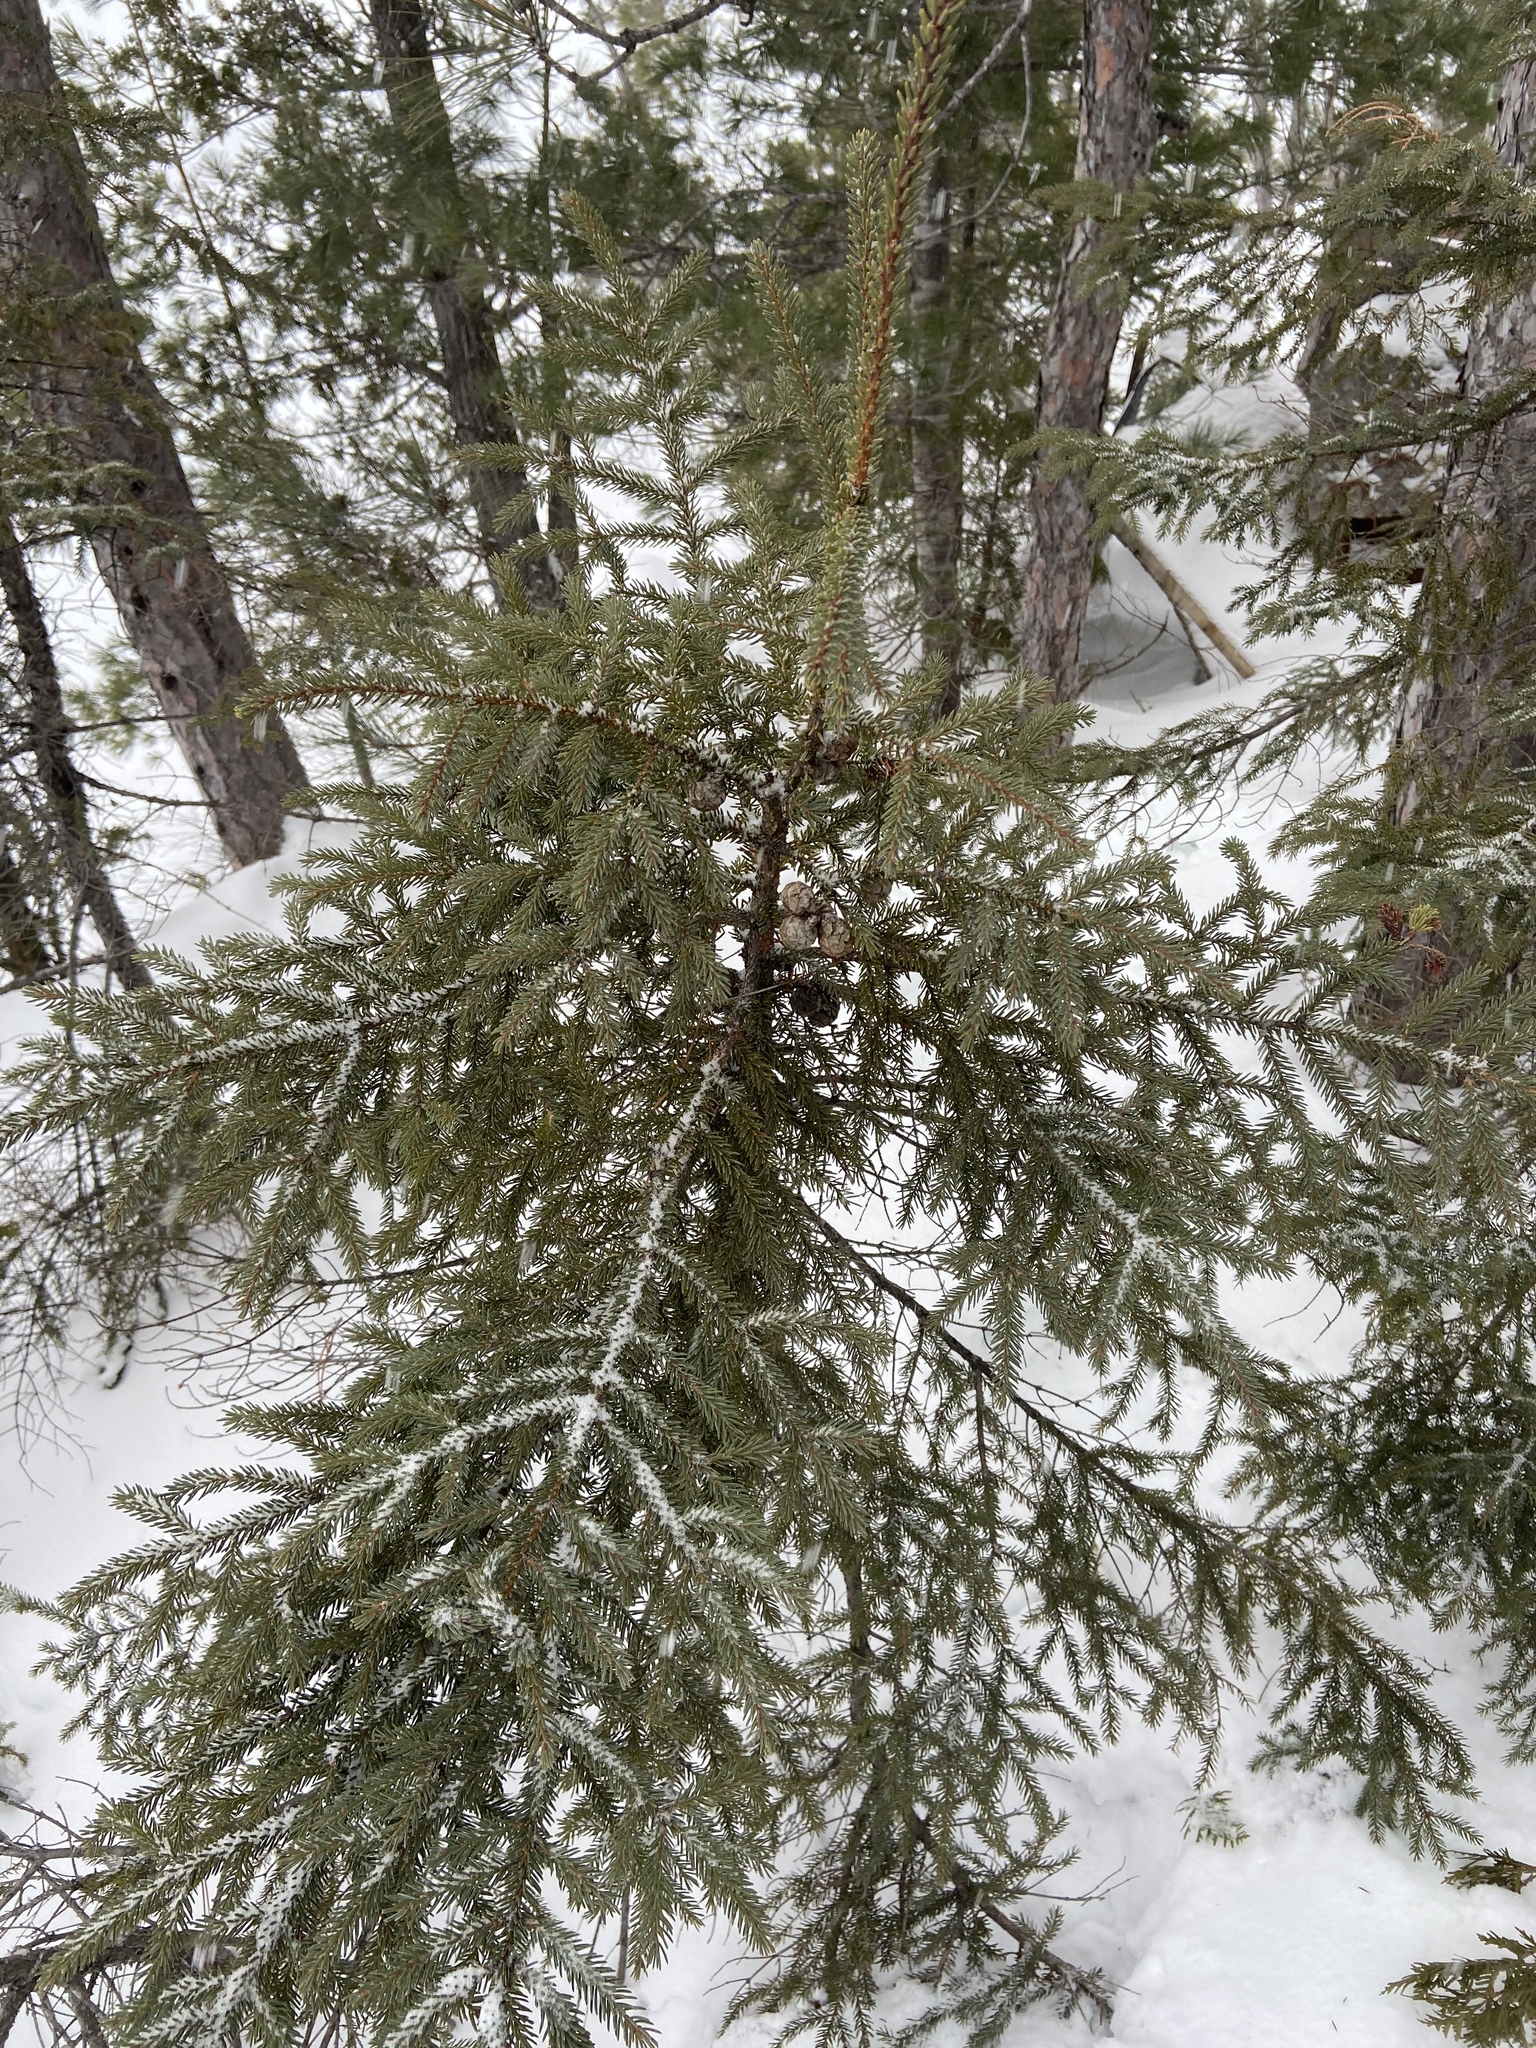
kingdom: Plantae
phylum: Tracheophyta
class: Pinopsida
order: Pinales
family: Pinaceae
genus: Picea
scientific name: Picea mariana
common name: Black spruce
